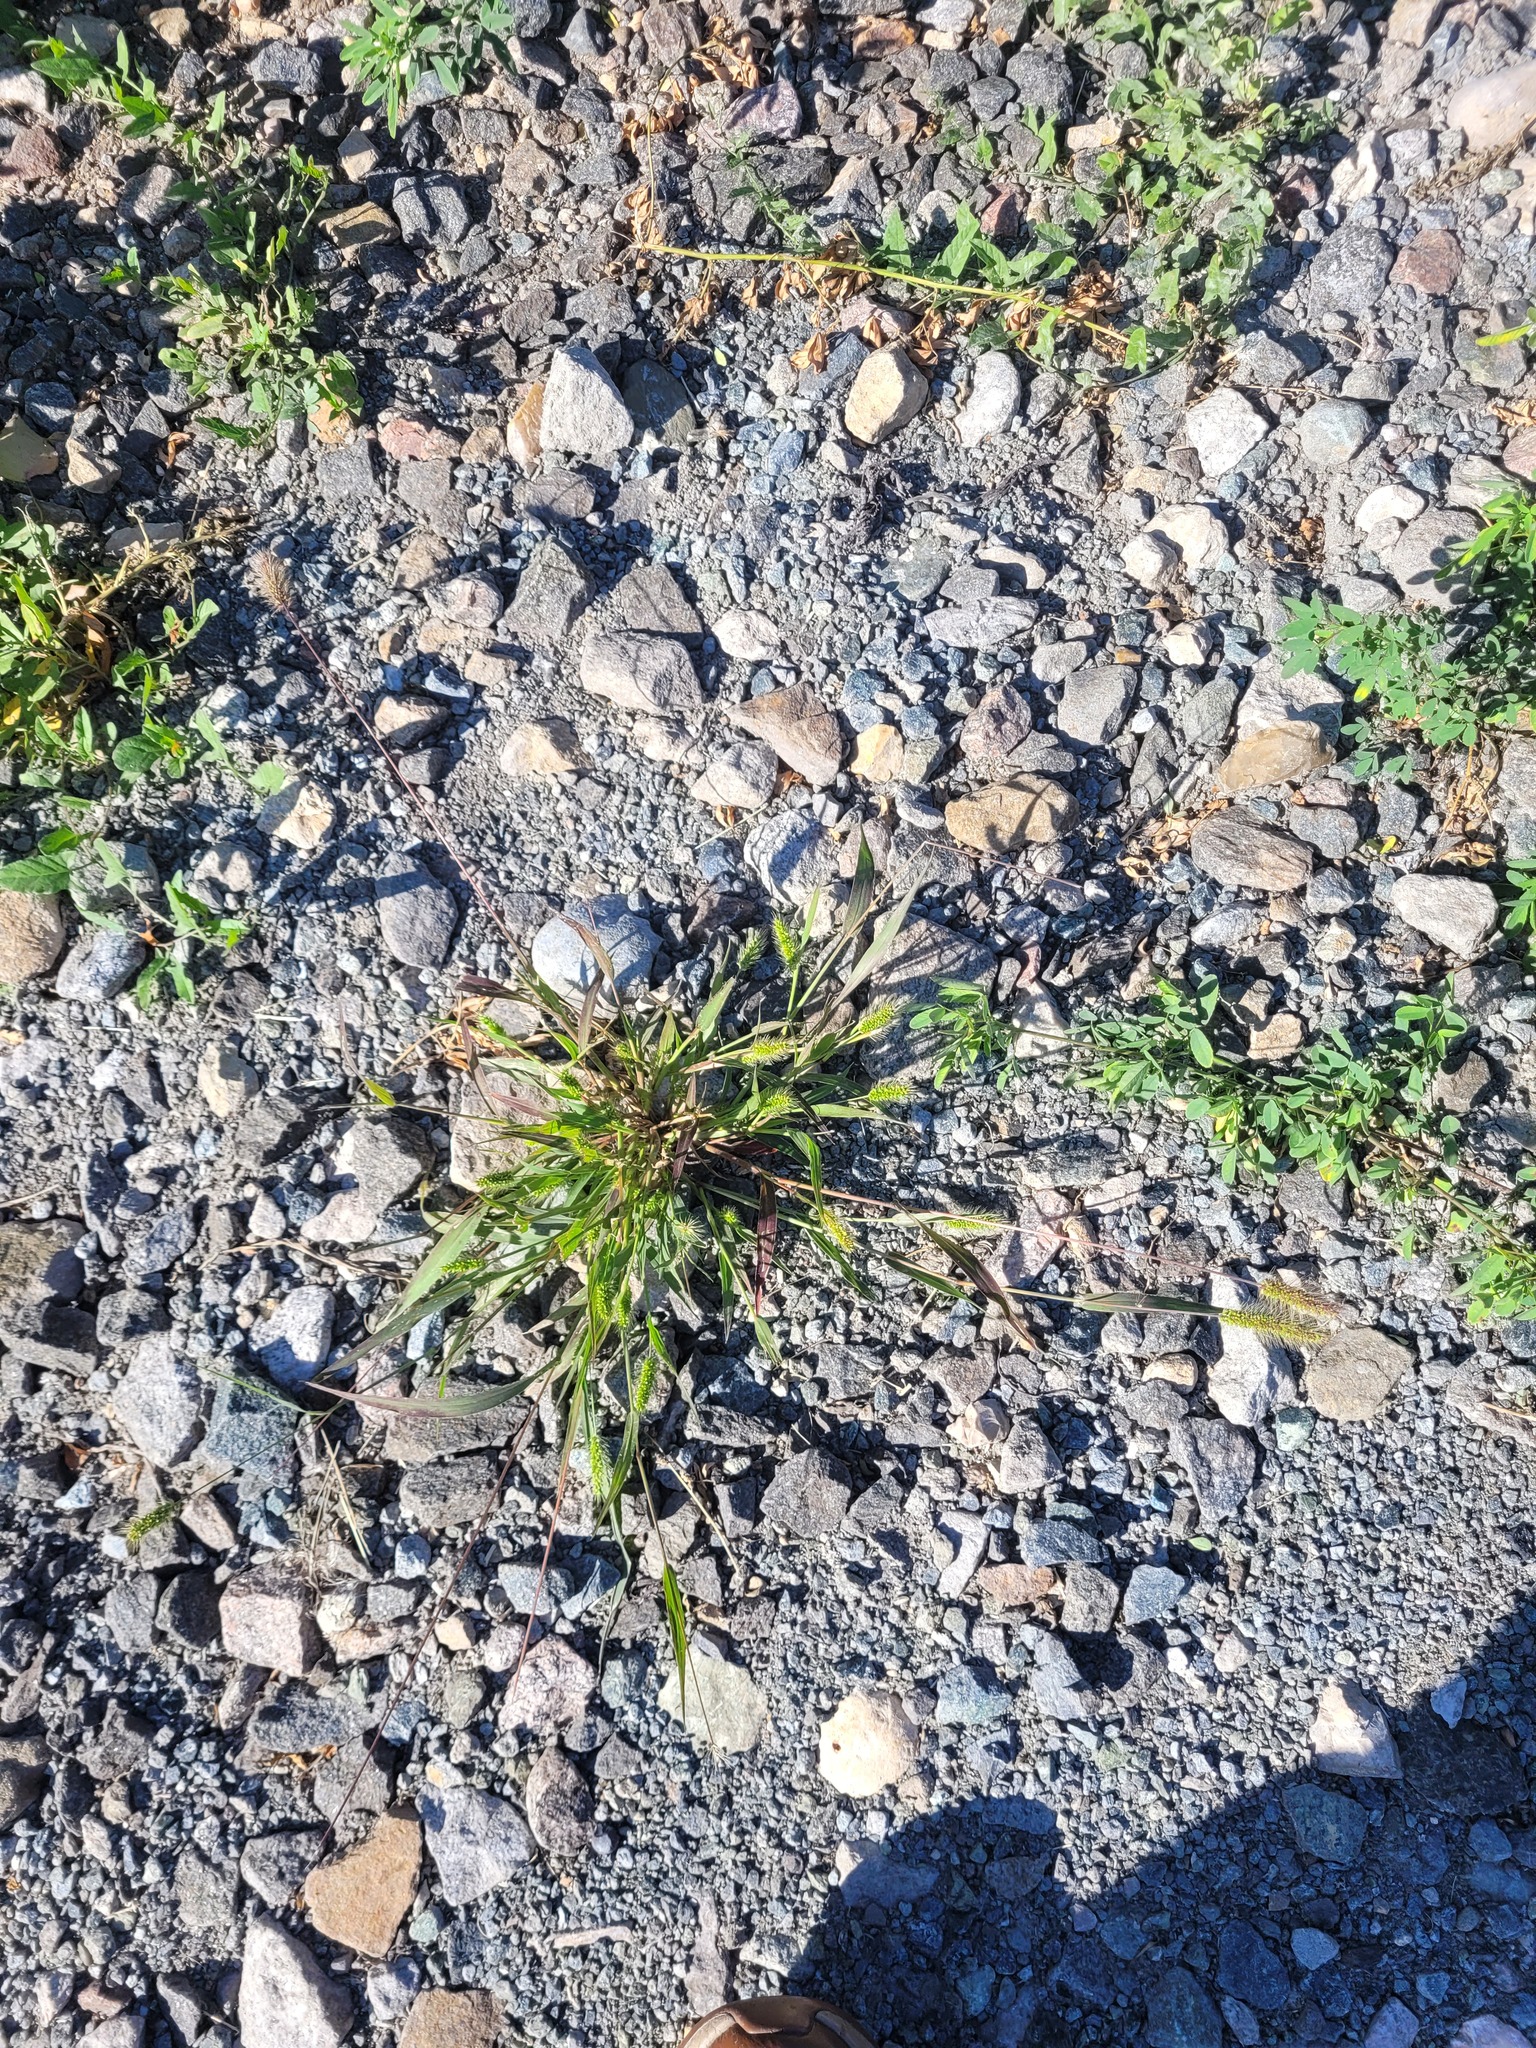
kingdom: Plantae
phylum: Tracheophyta
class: Liliopsida
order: Poales
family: Poaceae
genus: Setaria
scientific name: Setaria viridis
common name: Green bristlegrass
